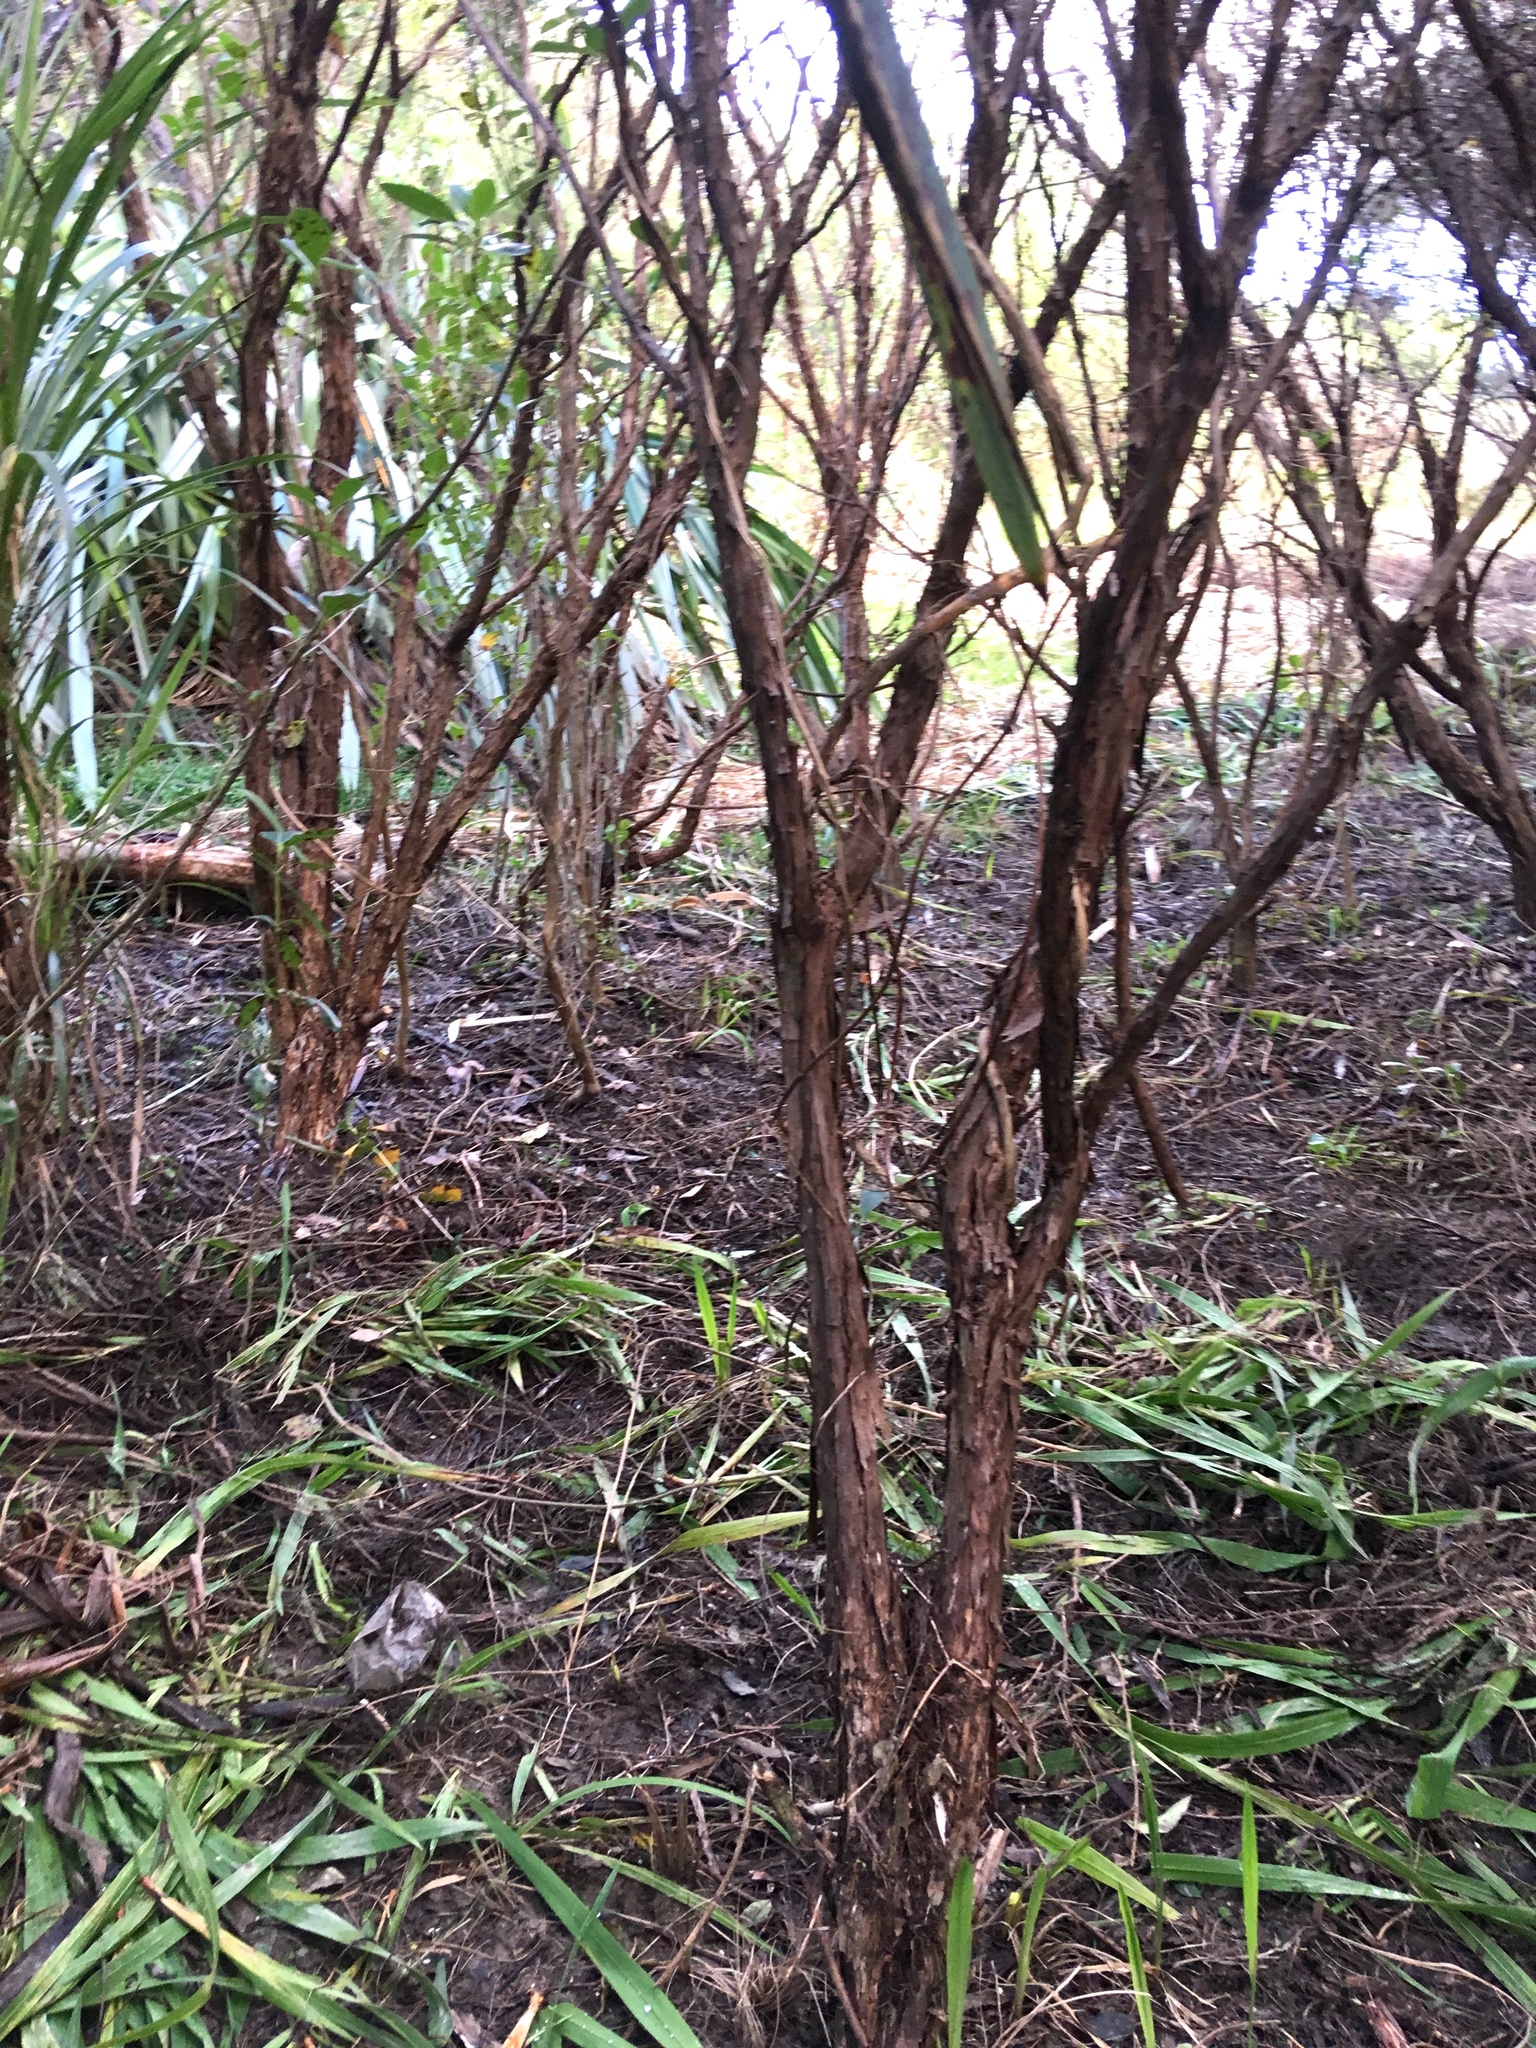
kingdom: Plantae
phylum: Tracheophyta
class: Magnoliopsida
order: Myrtales
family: Myrtaceae
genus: Leptospermum
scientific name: Leptospermum scoparium
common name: Broom tea-tree
